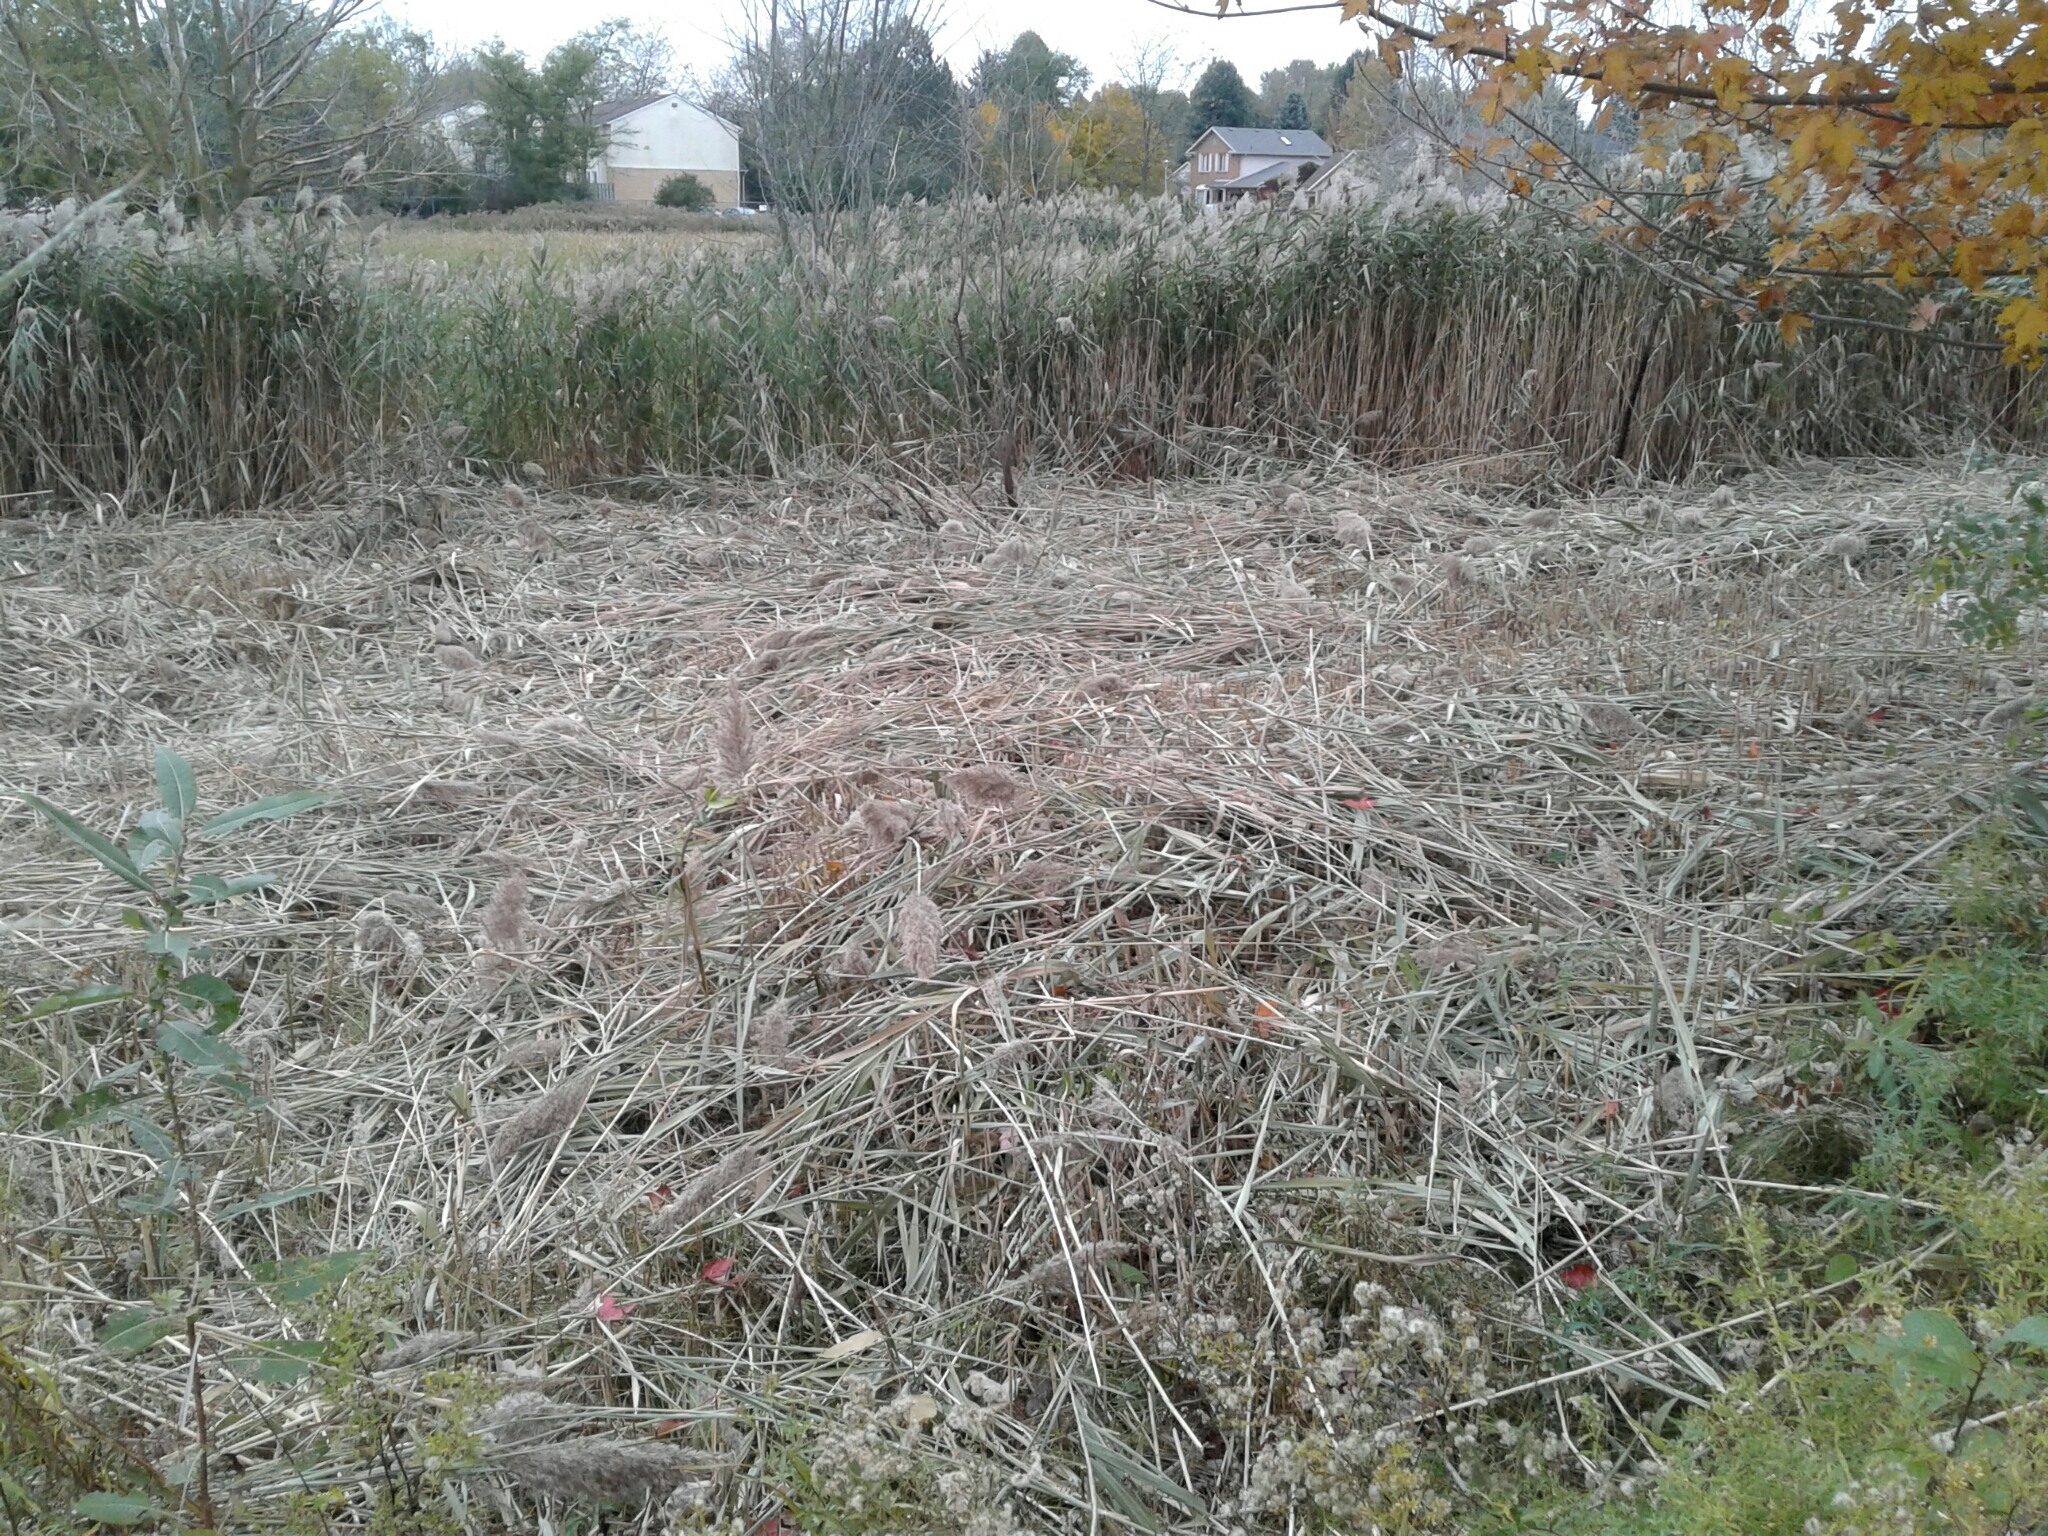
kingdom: Plantae
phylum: Tracheophyta
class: Liliopsida
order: Poales
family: Poaceae
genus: Phragmites
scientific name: Phragmites australis
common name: Common reed
